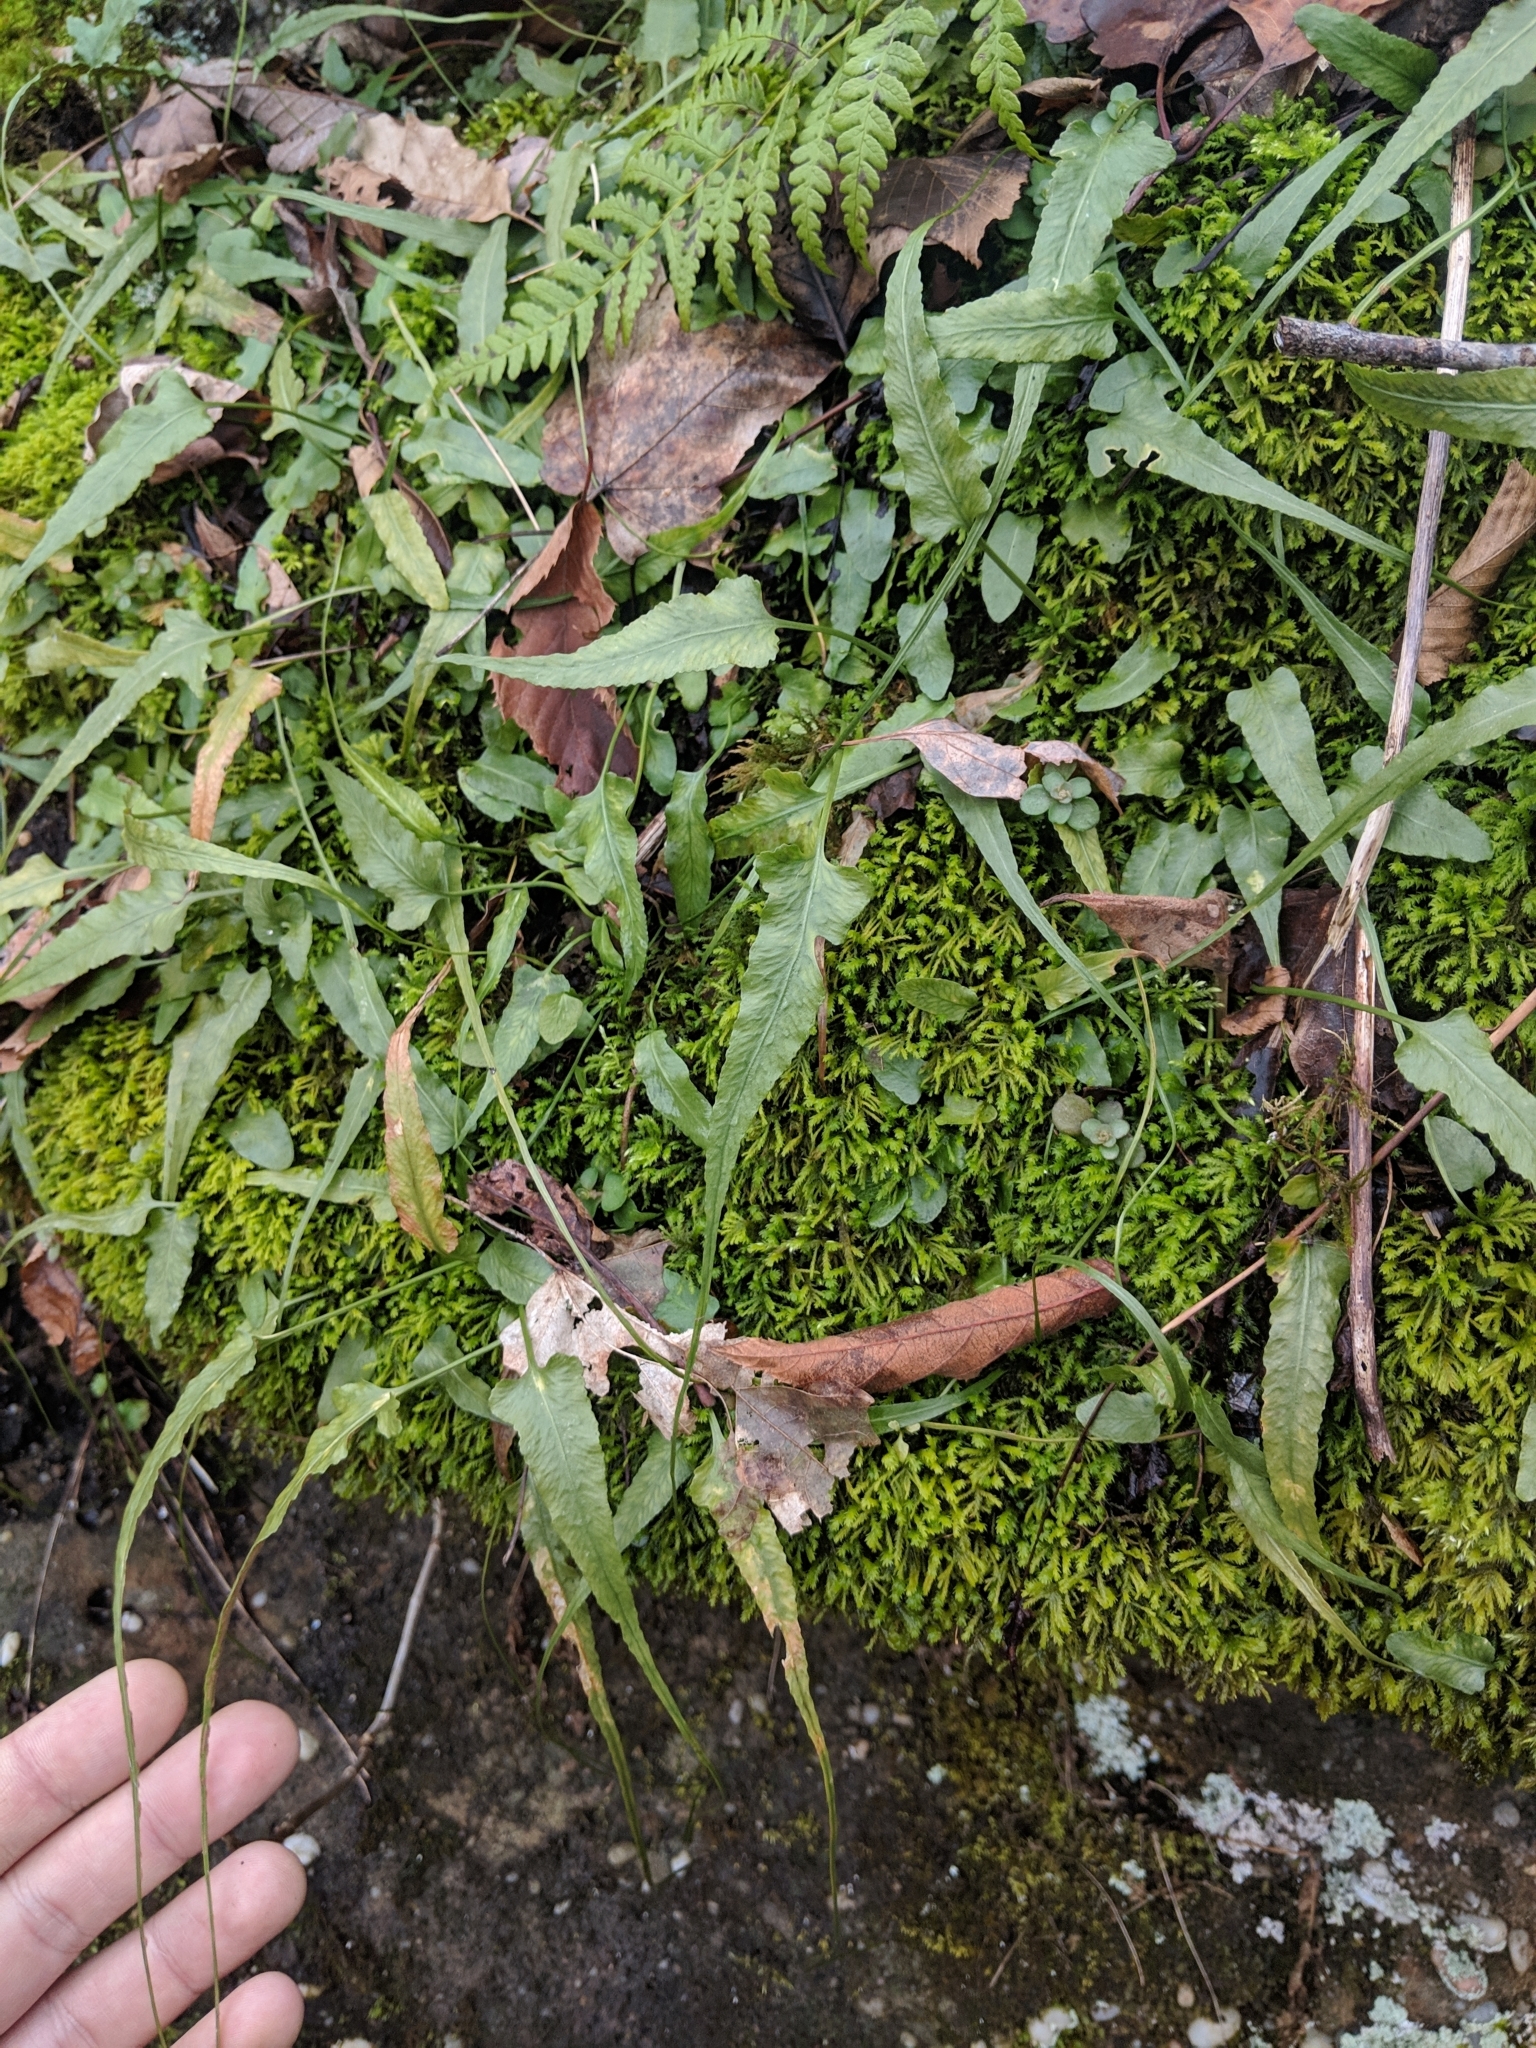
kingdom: Plantae
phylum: Tracheophyta
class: Polypodiopsida
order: Polypodiales
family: Aspleniaceae
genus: Asplenium
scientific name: Asplenium rhizophyllum
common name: Walking fern
